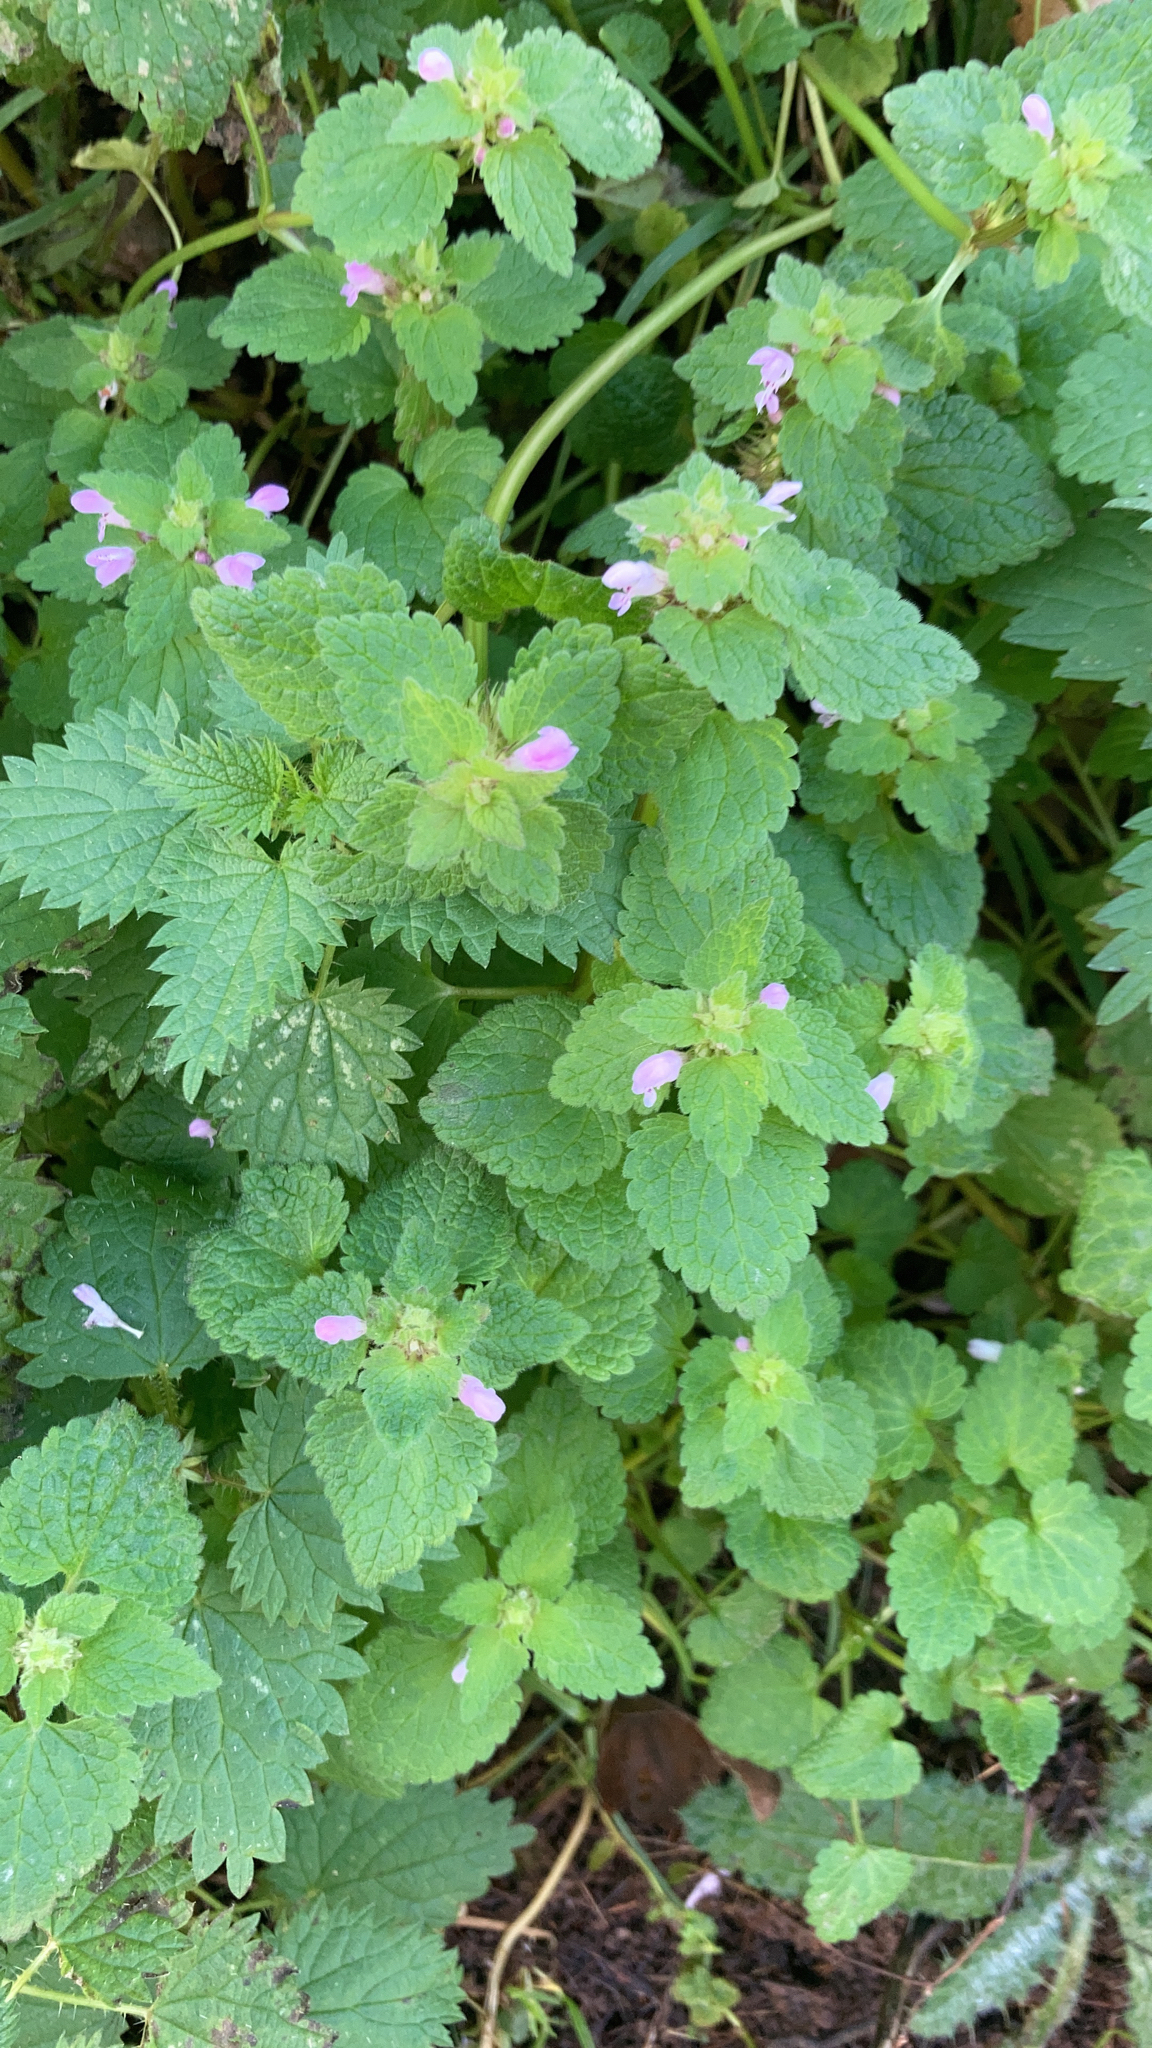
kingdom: Plantae
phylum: Tracheophyta
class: Magnoliopsida
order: Lamiales
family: Lamiaceae
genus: Lamium
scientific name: Lamium purpureum
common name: Red dead-nettle
